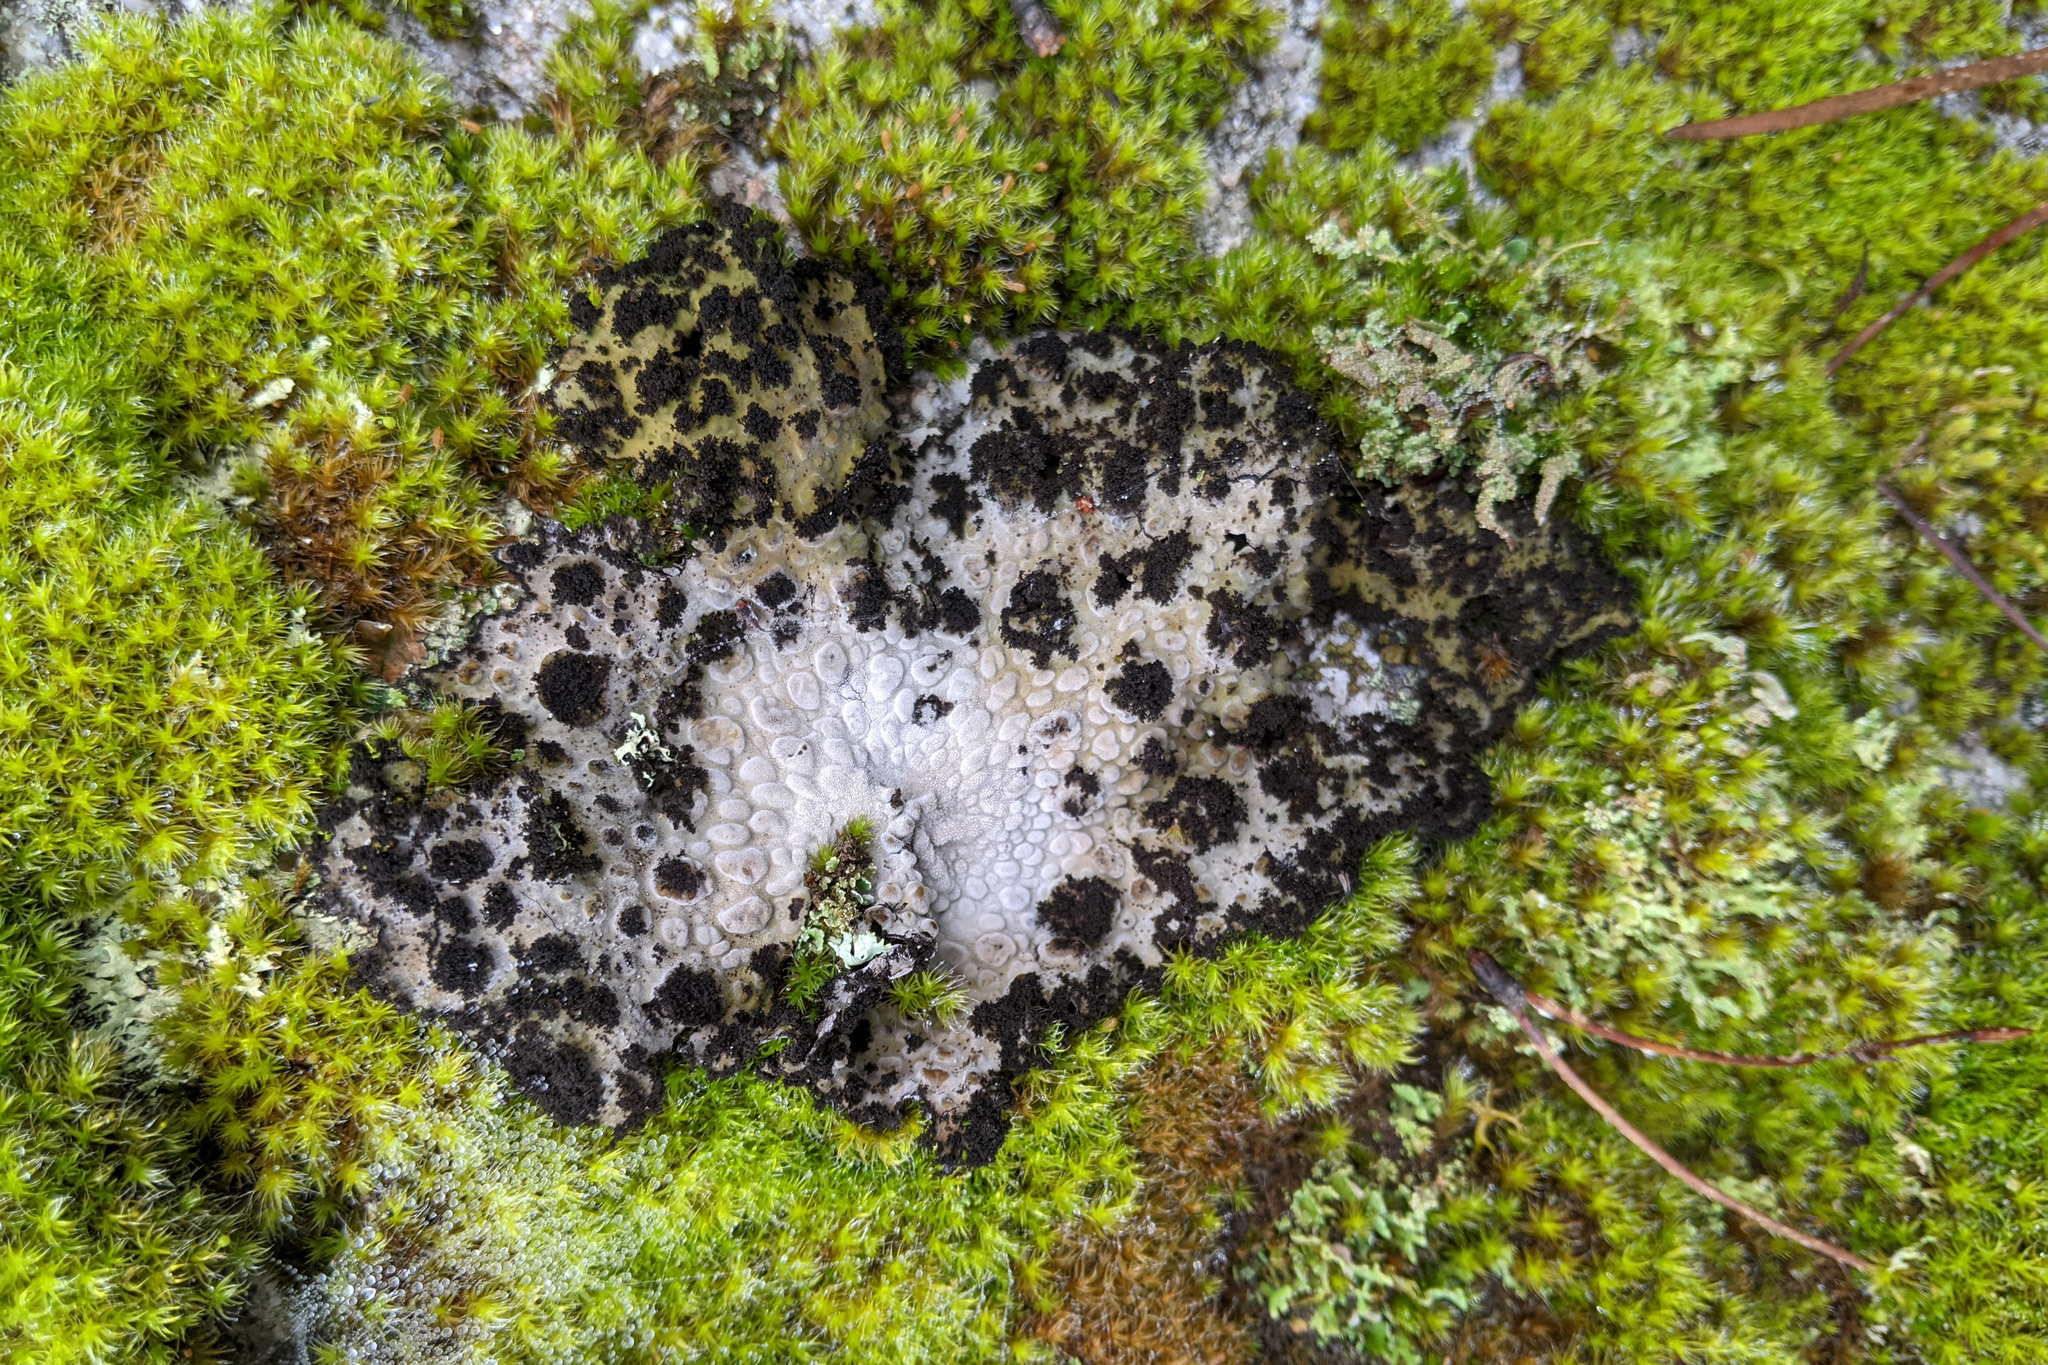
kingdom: Fungi
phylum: Ascomycota
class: Lecanoromycetes
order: Umbilicariales
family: Umbilicariaceae
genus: Lasallia
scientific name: Lasallia pustulata
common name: Blistered toadskin lichen
